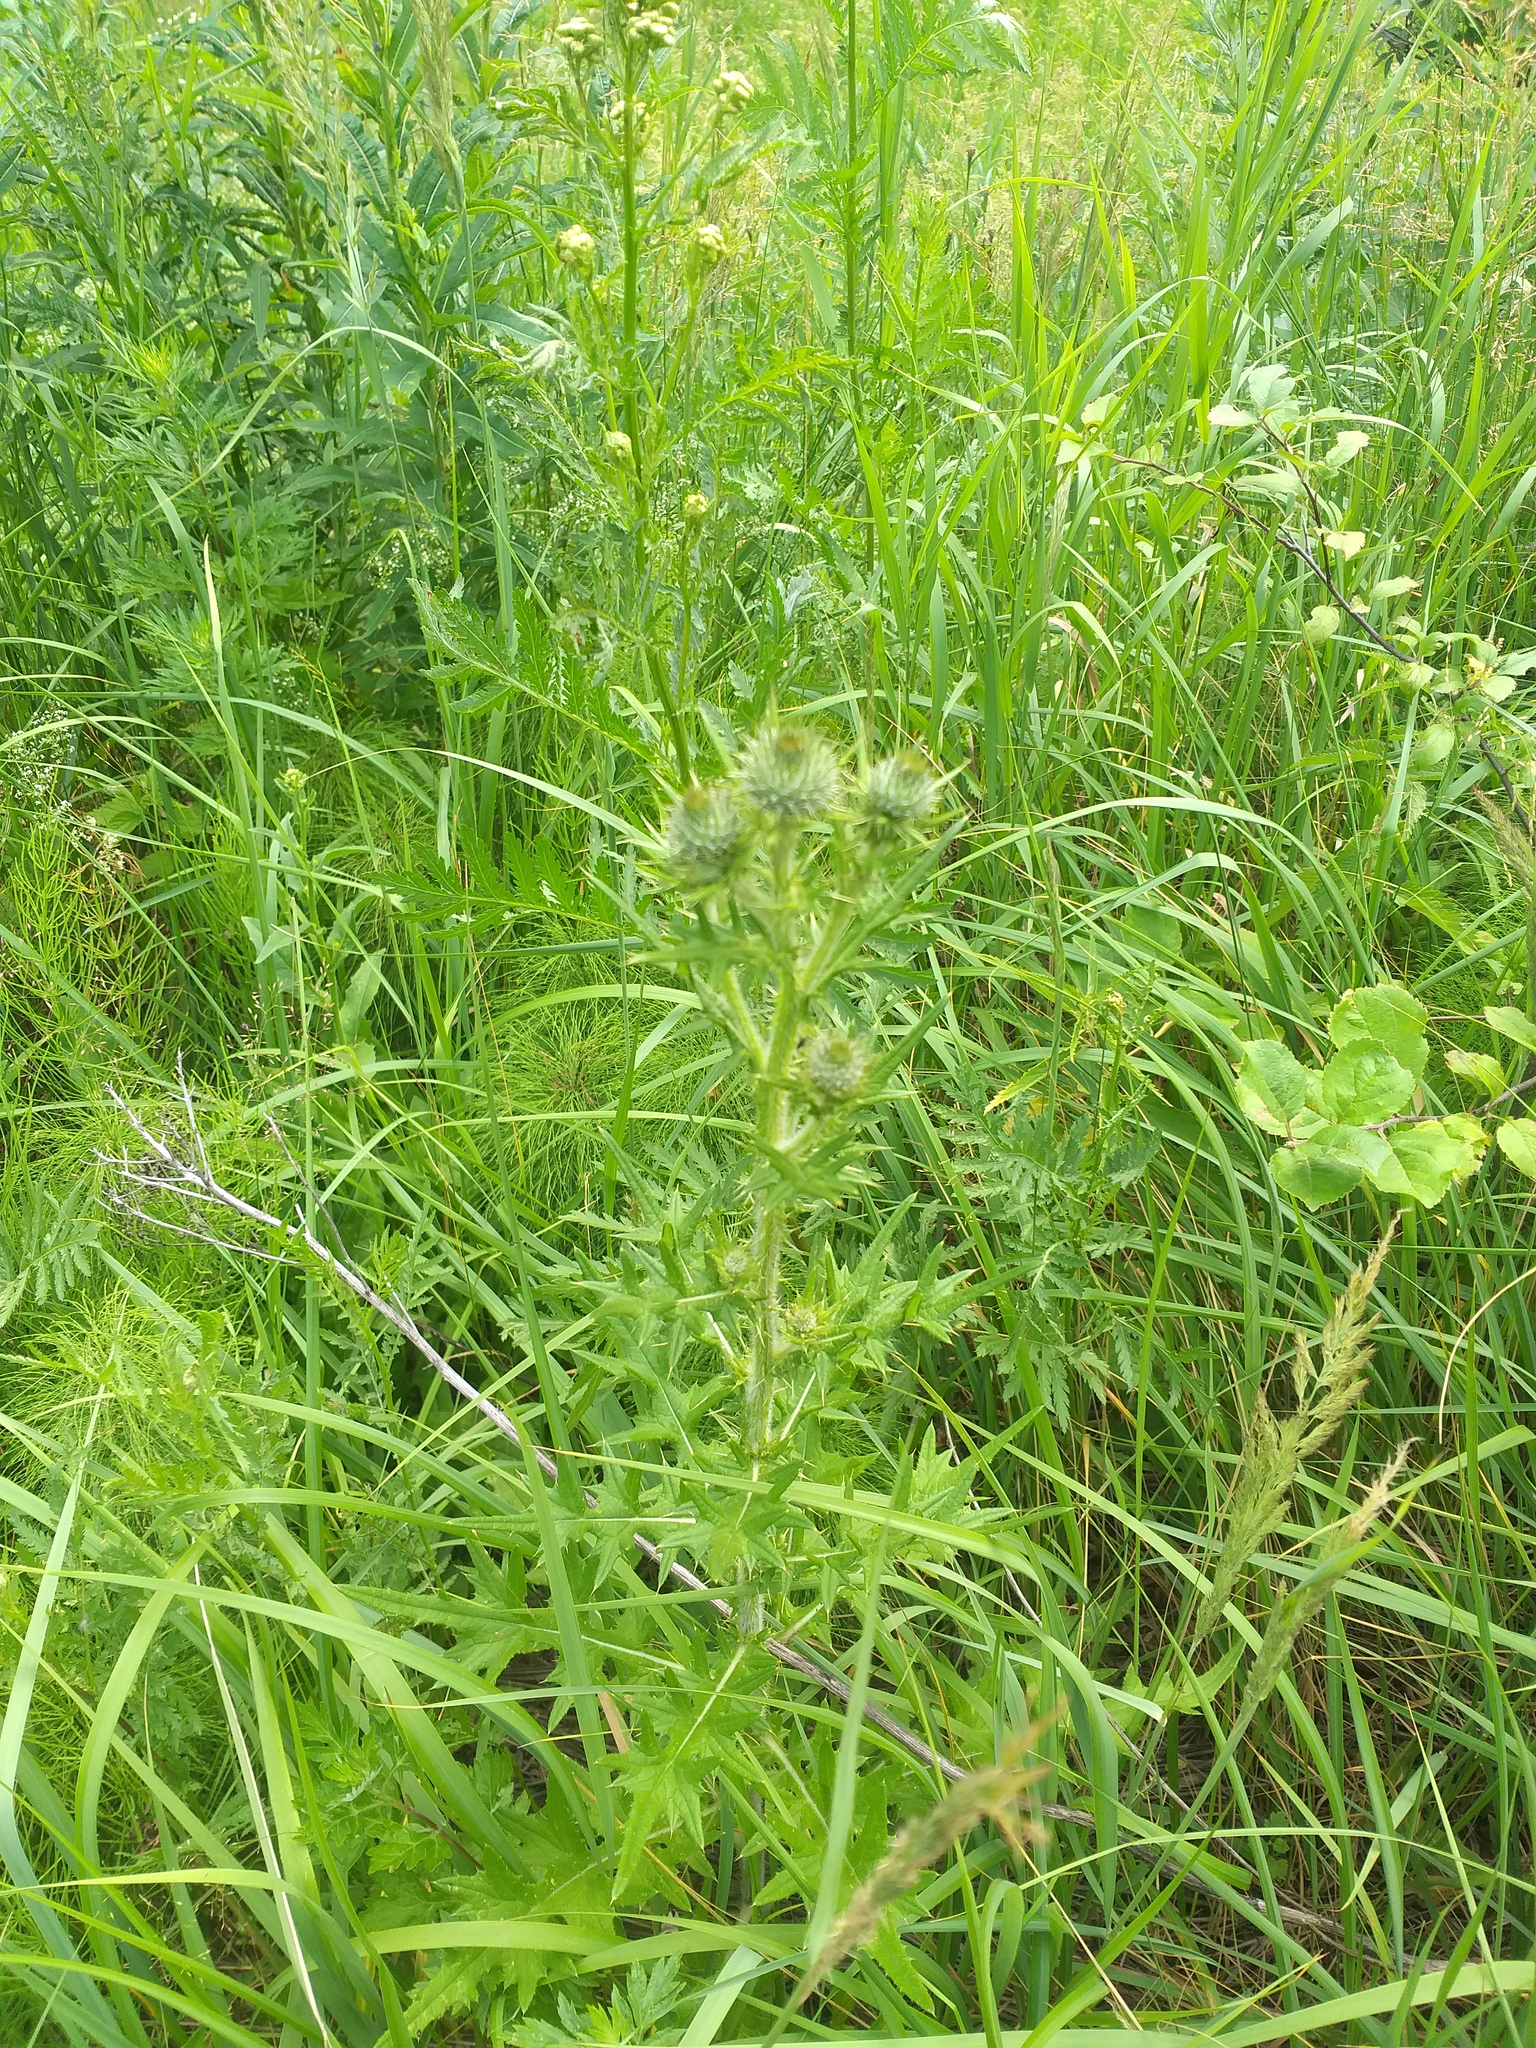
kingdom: Plantae
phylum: Tracheophyta
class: Magnoliopsida
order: Asterales
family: Asteraceae
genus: Cirsium
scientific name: Cirsium vulgare
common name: Bull thistle
